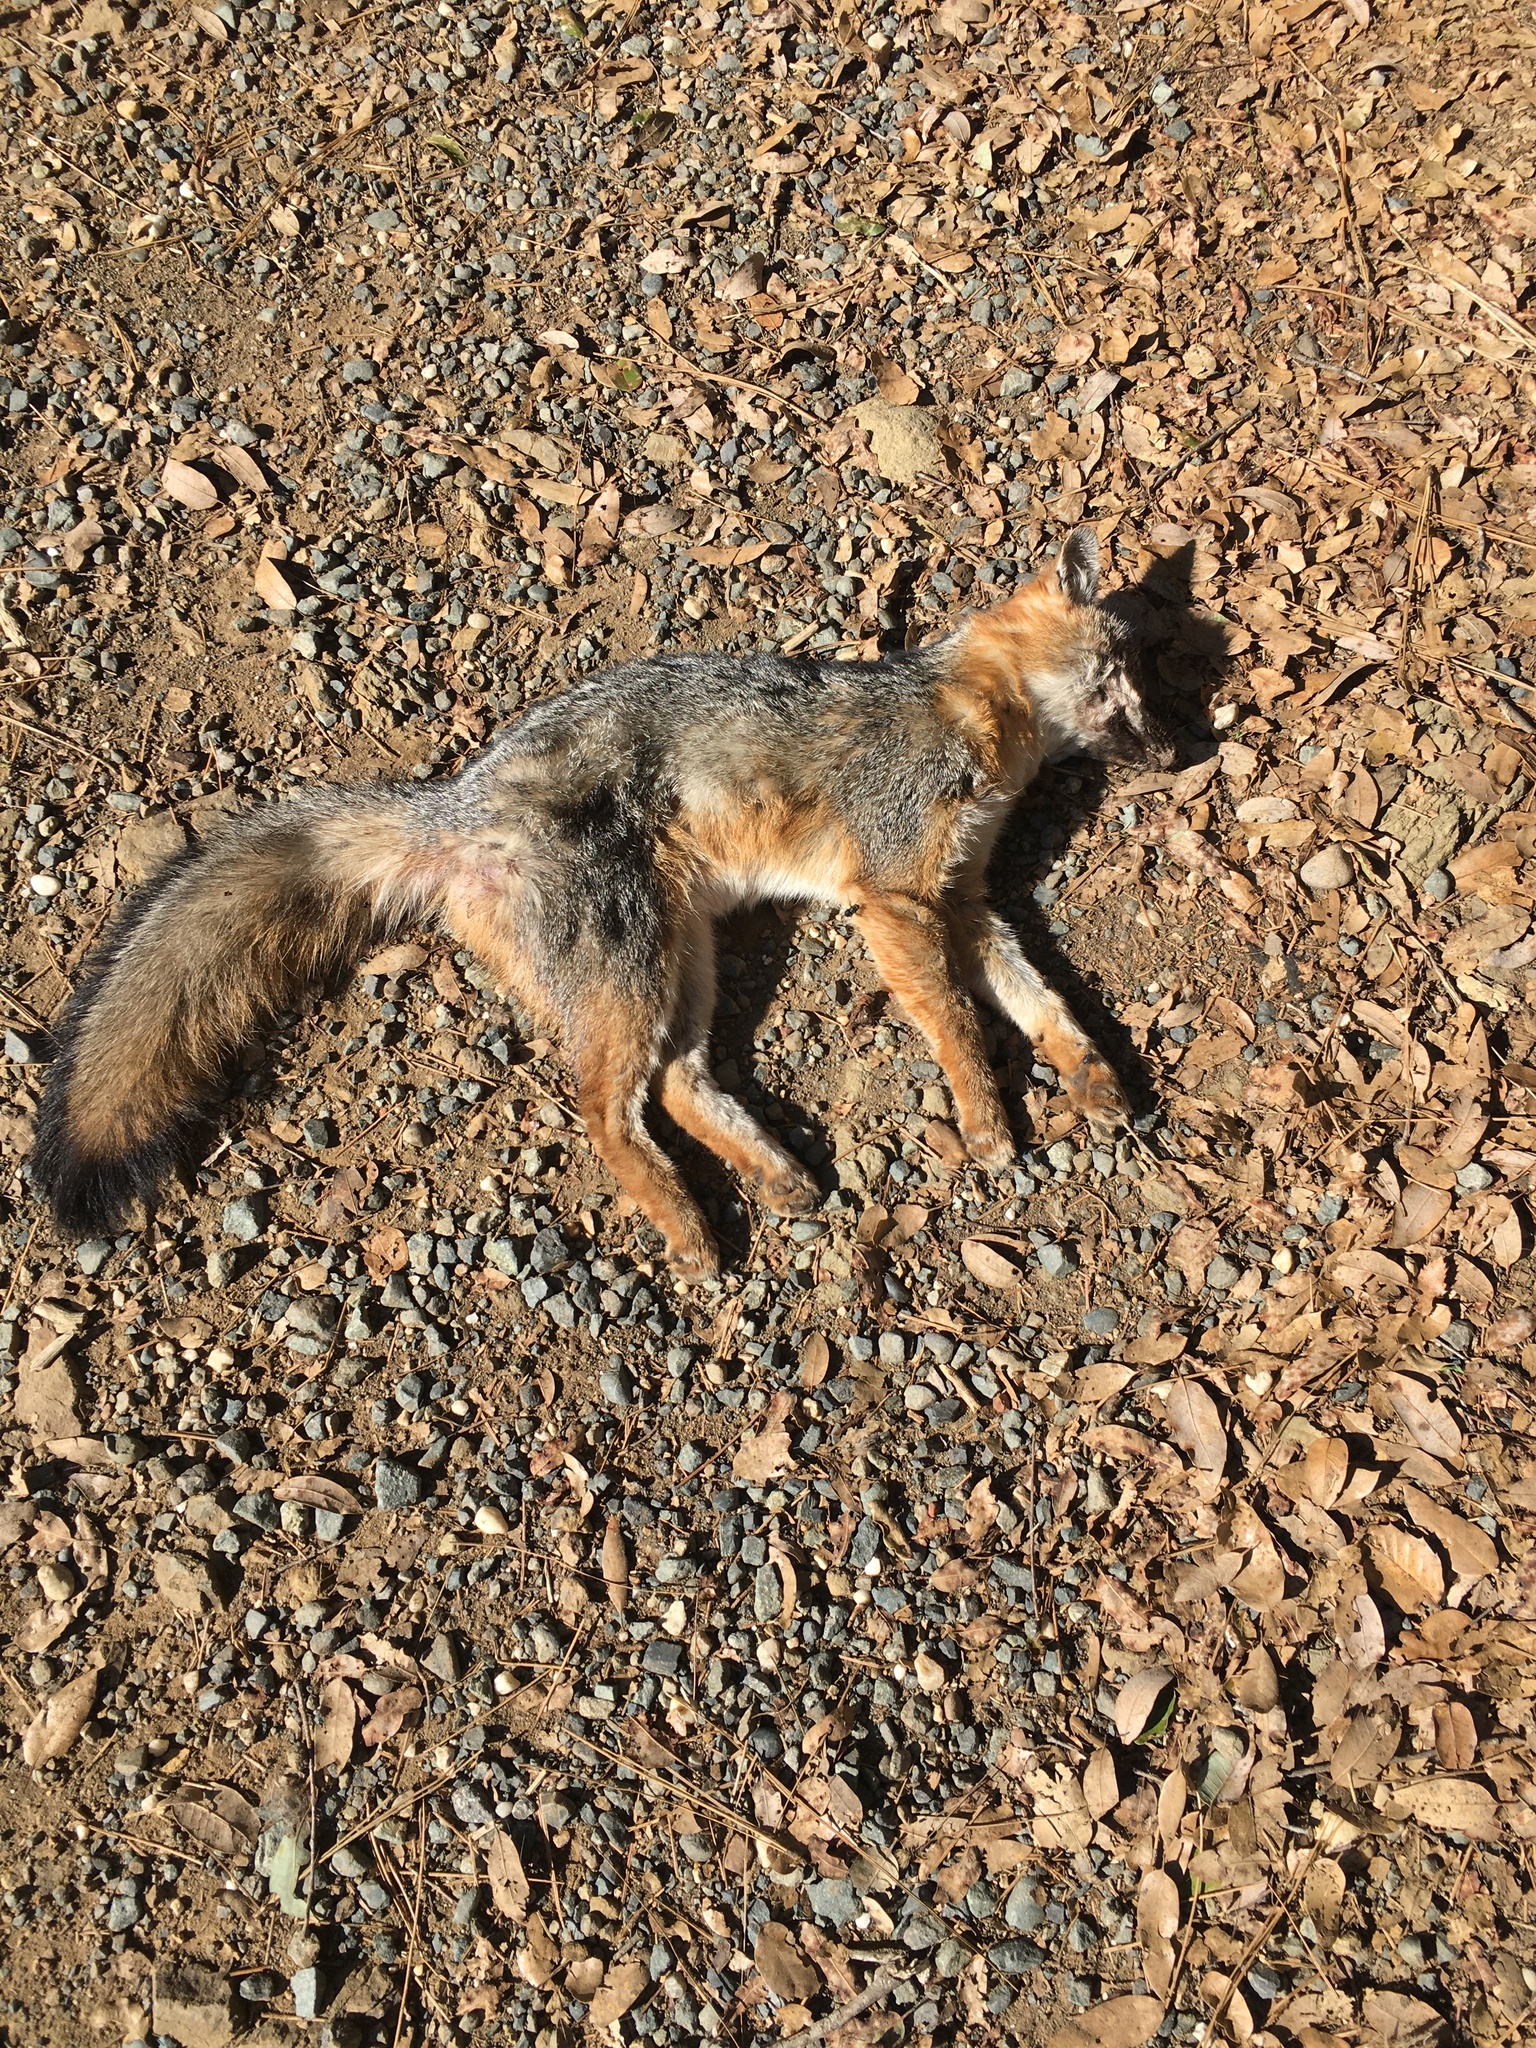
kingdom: Animalia
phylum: Chordata
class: Mammalia
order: Carnivora
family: Canidae
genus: Urocyon
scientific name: Urocyon cinereoargenteus
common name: Gray fox
